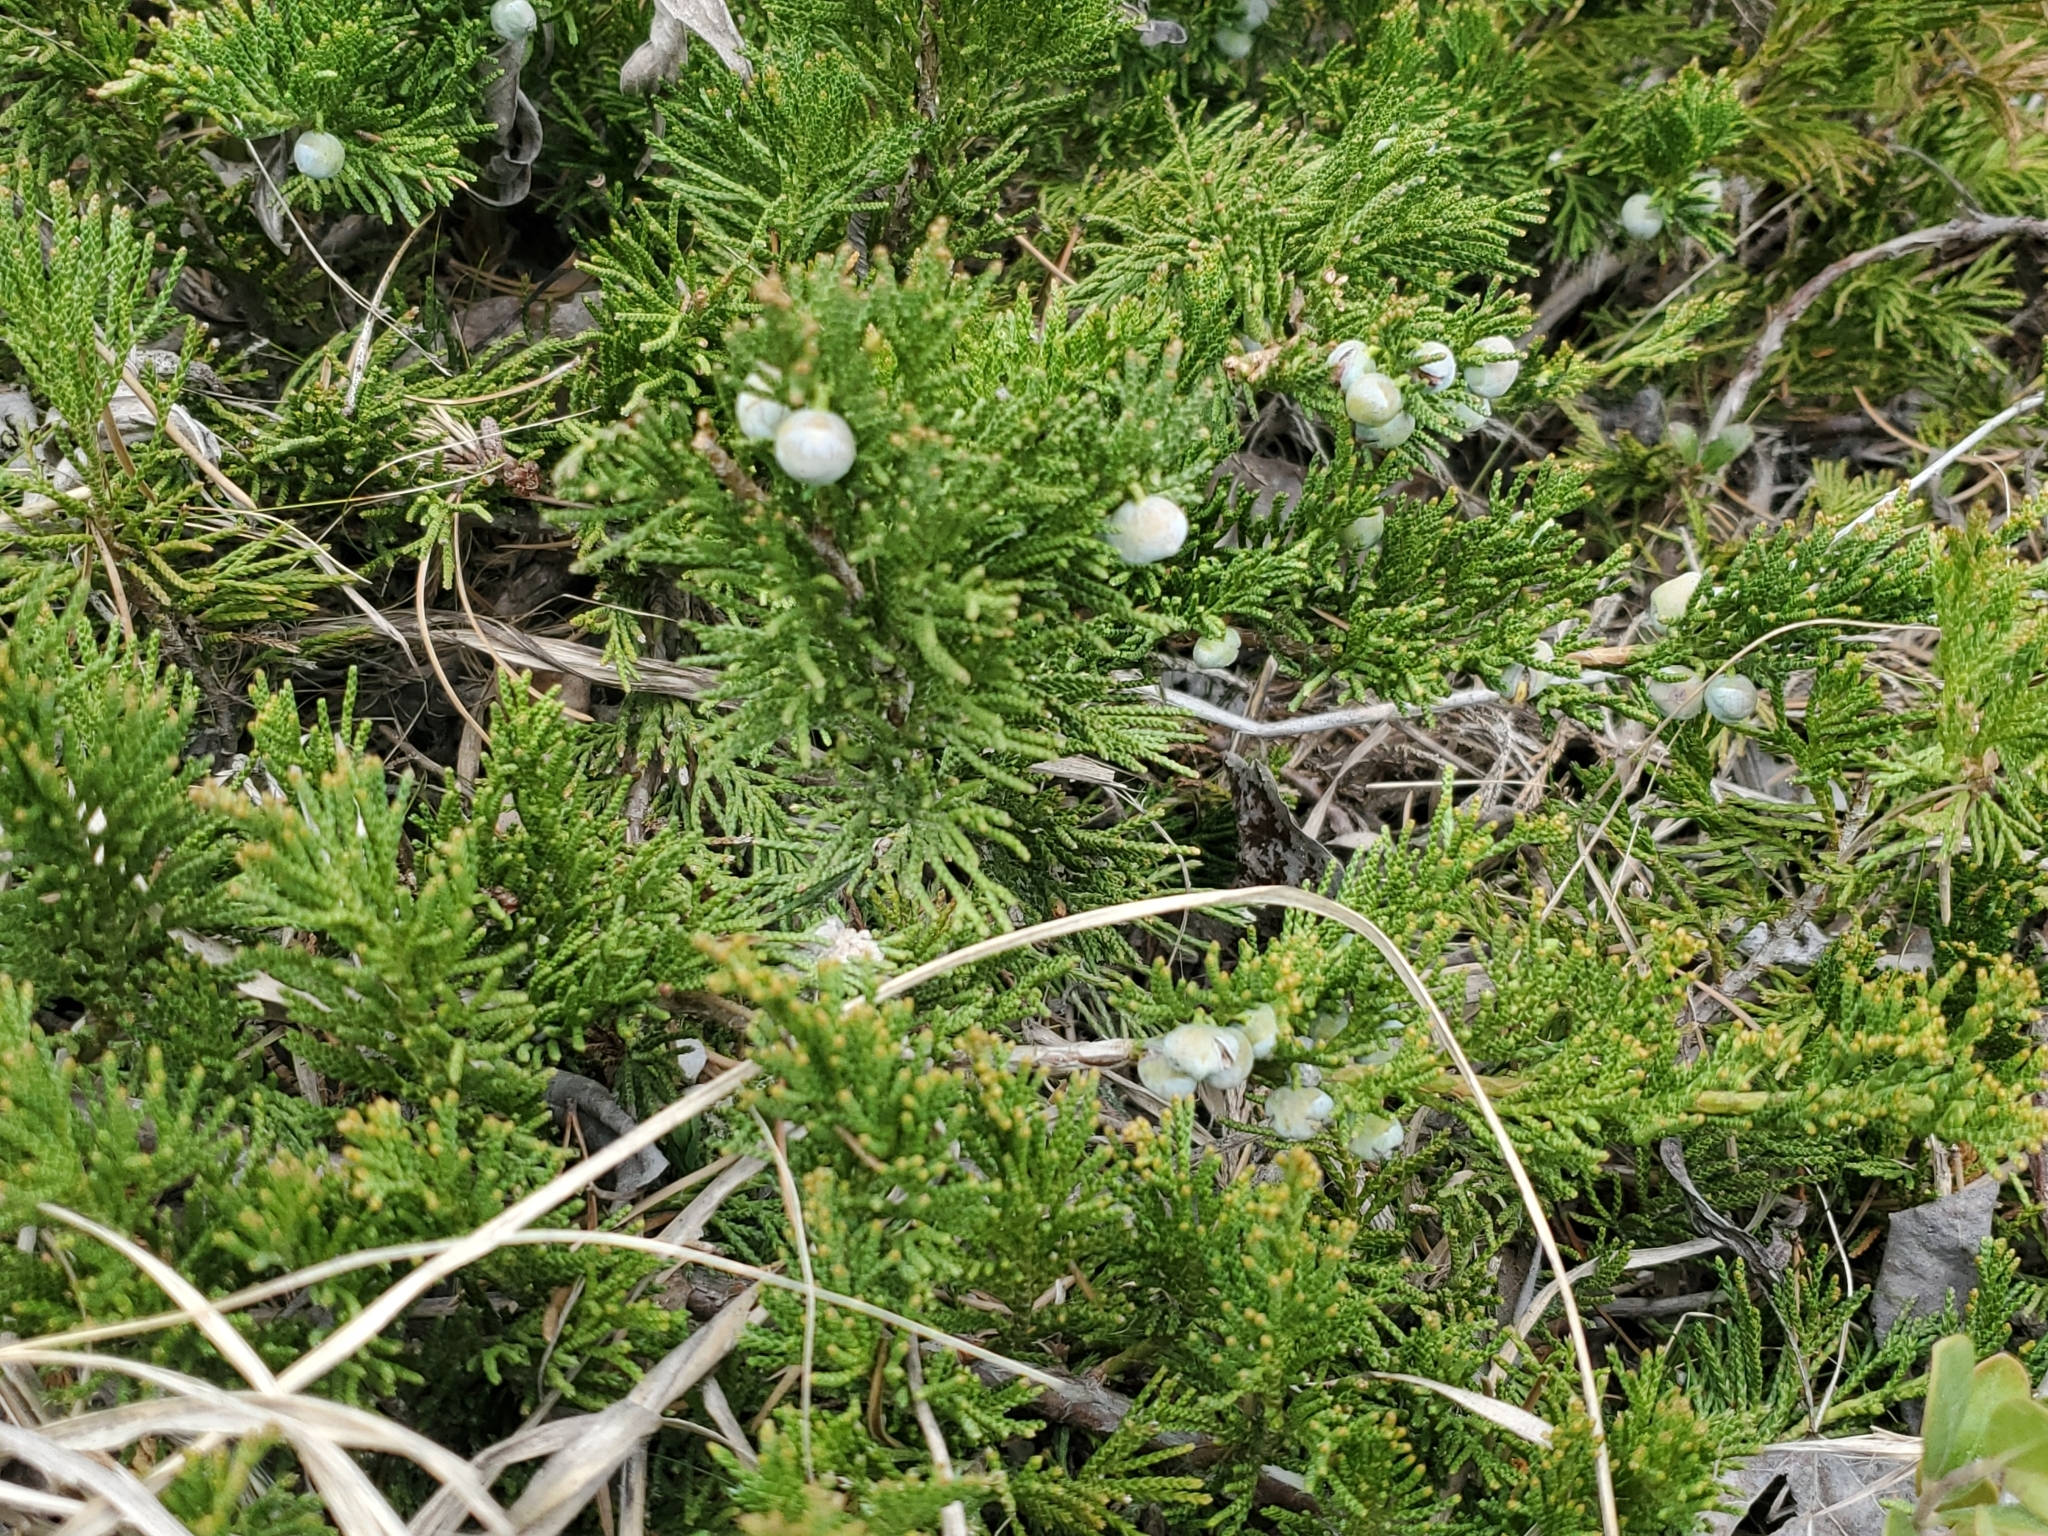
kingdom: Plantae
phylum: Tracheophyta
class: Pinopsida
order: Pinales
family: Cupressaceae
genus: Juniperus
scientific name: Juniperus horizontalis
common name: Creeping juniper
